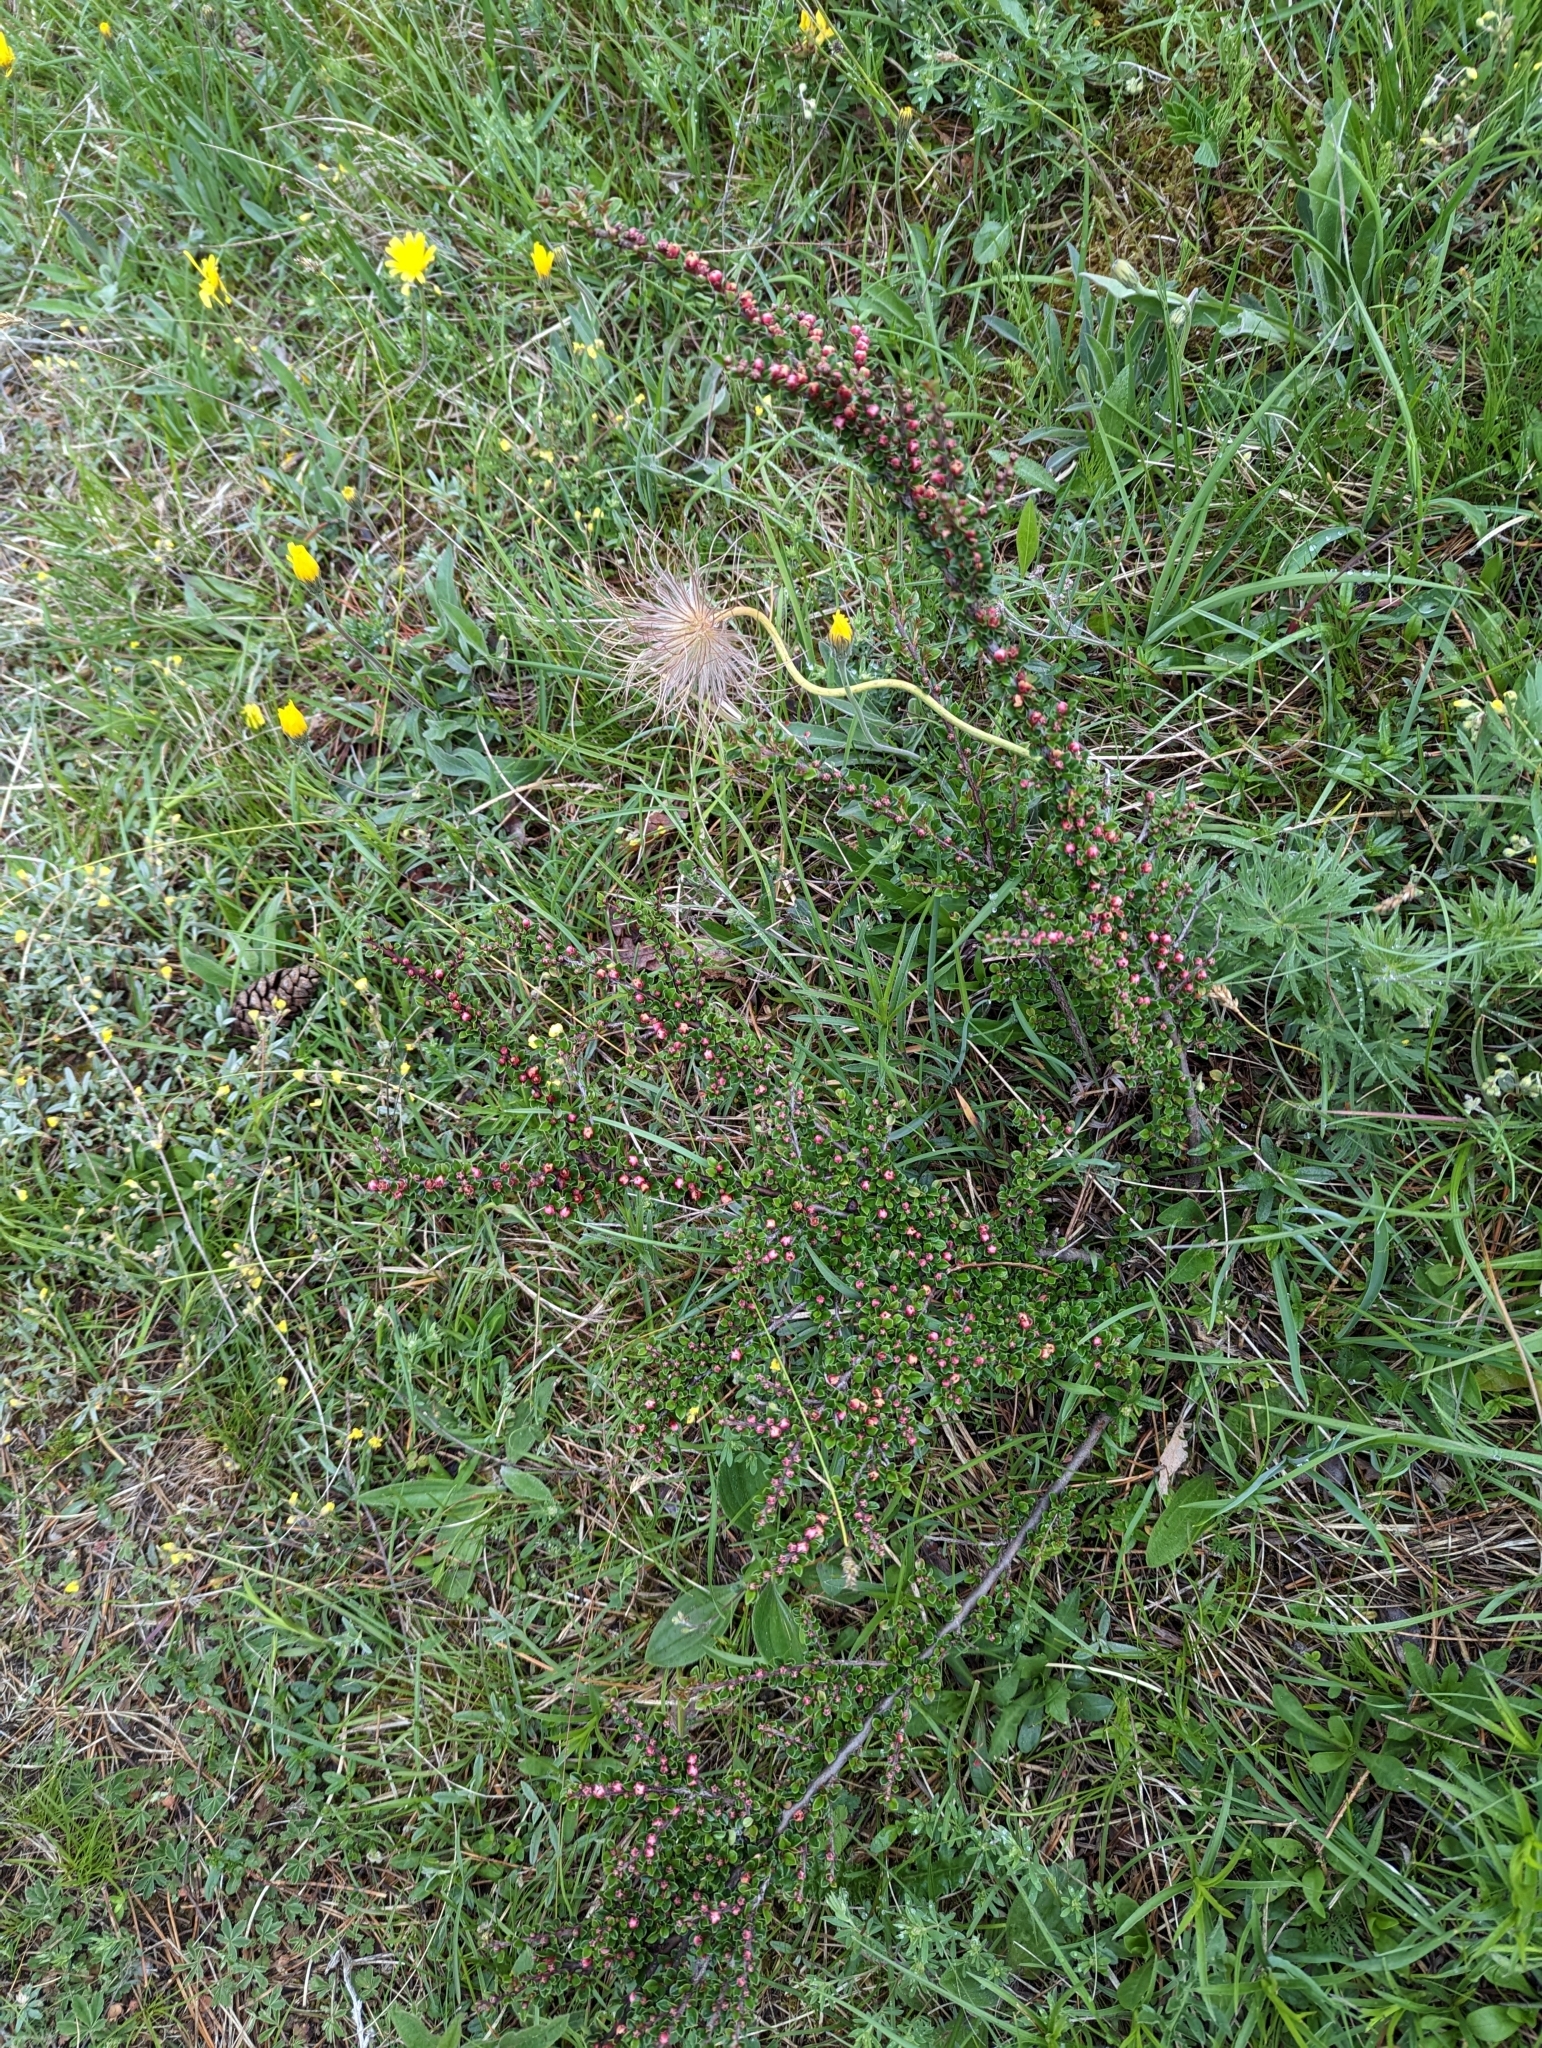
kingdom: Plantae
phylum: Tracheophyta
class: Magnoliopsida
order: Rosales
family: Rosaceae
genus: Cotoneaster
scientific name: Cotoneaster horizontalis
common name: Wall cotoneaster
